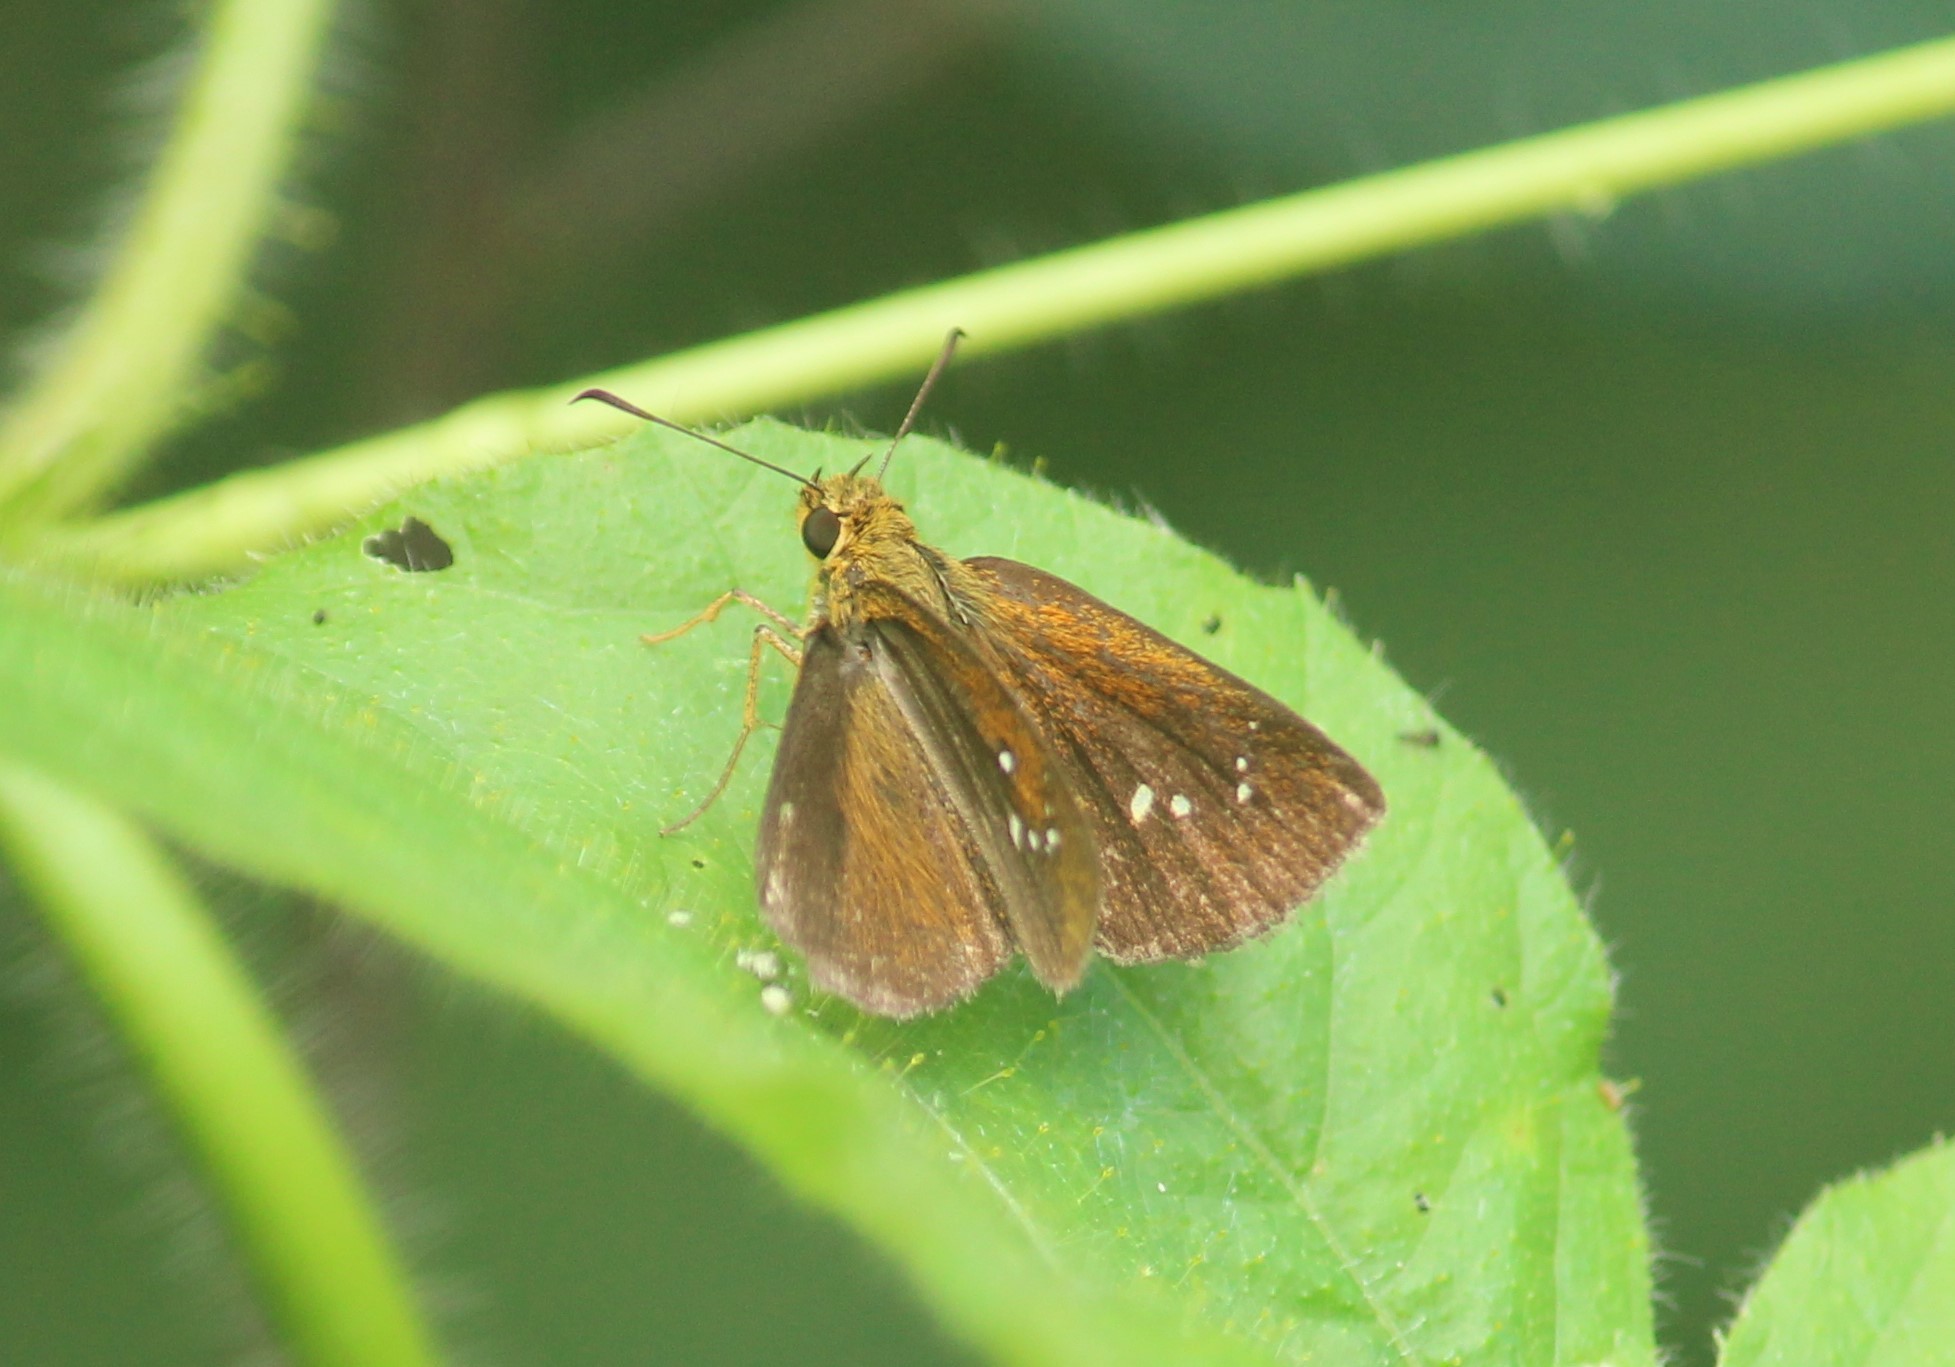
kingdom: Animalia
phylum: Arthropoda
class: Insecta
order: Lepidoptera
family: Hesperiidae
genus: Iambrix
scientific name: Iambrix salsala
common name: Chestnut bob
